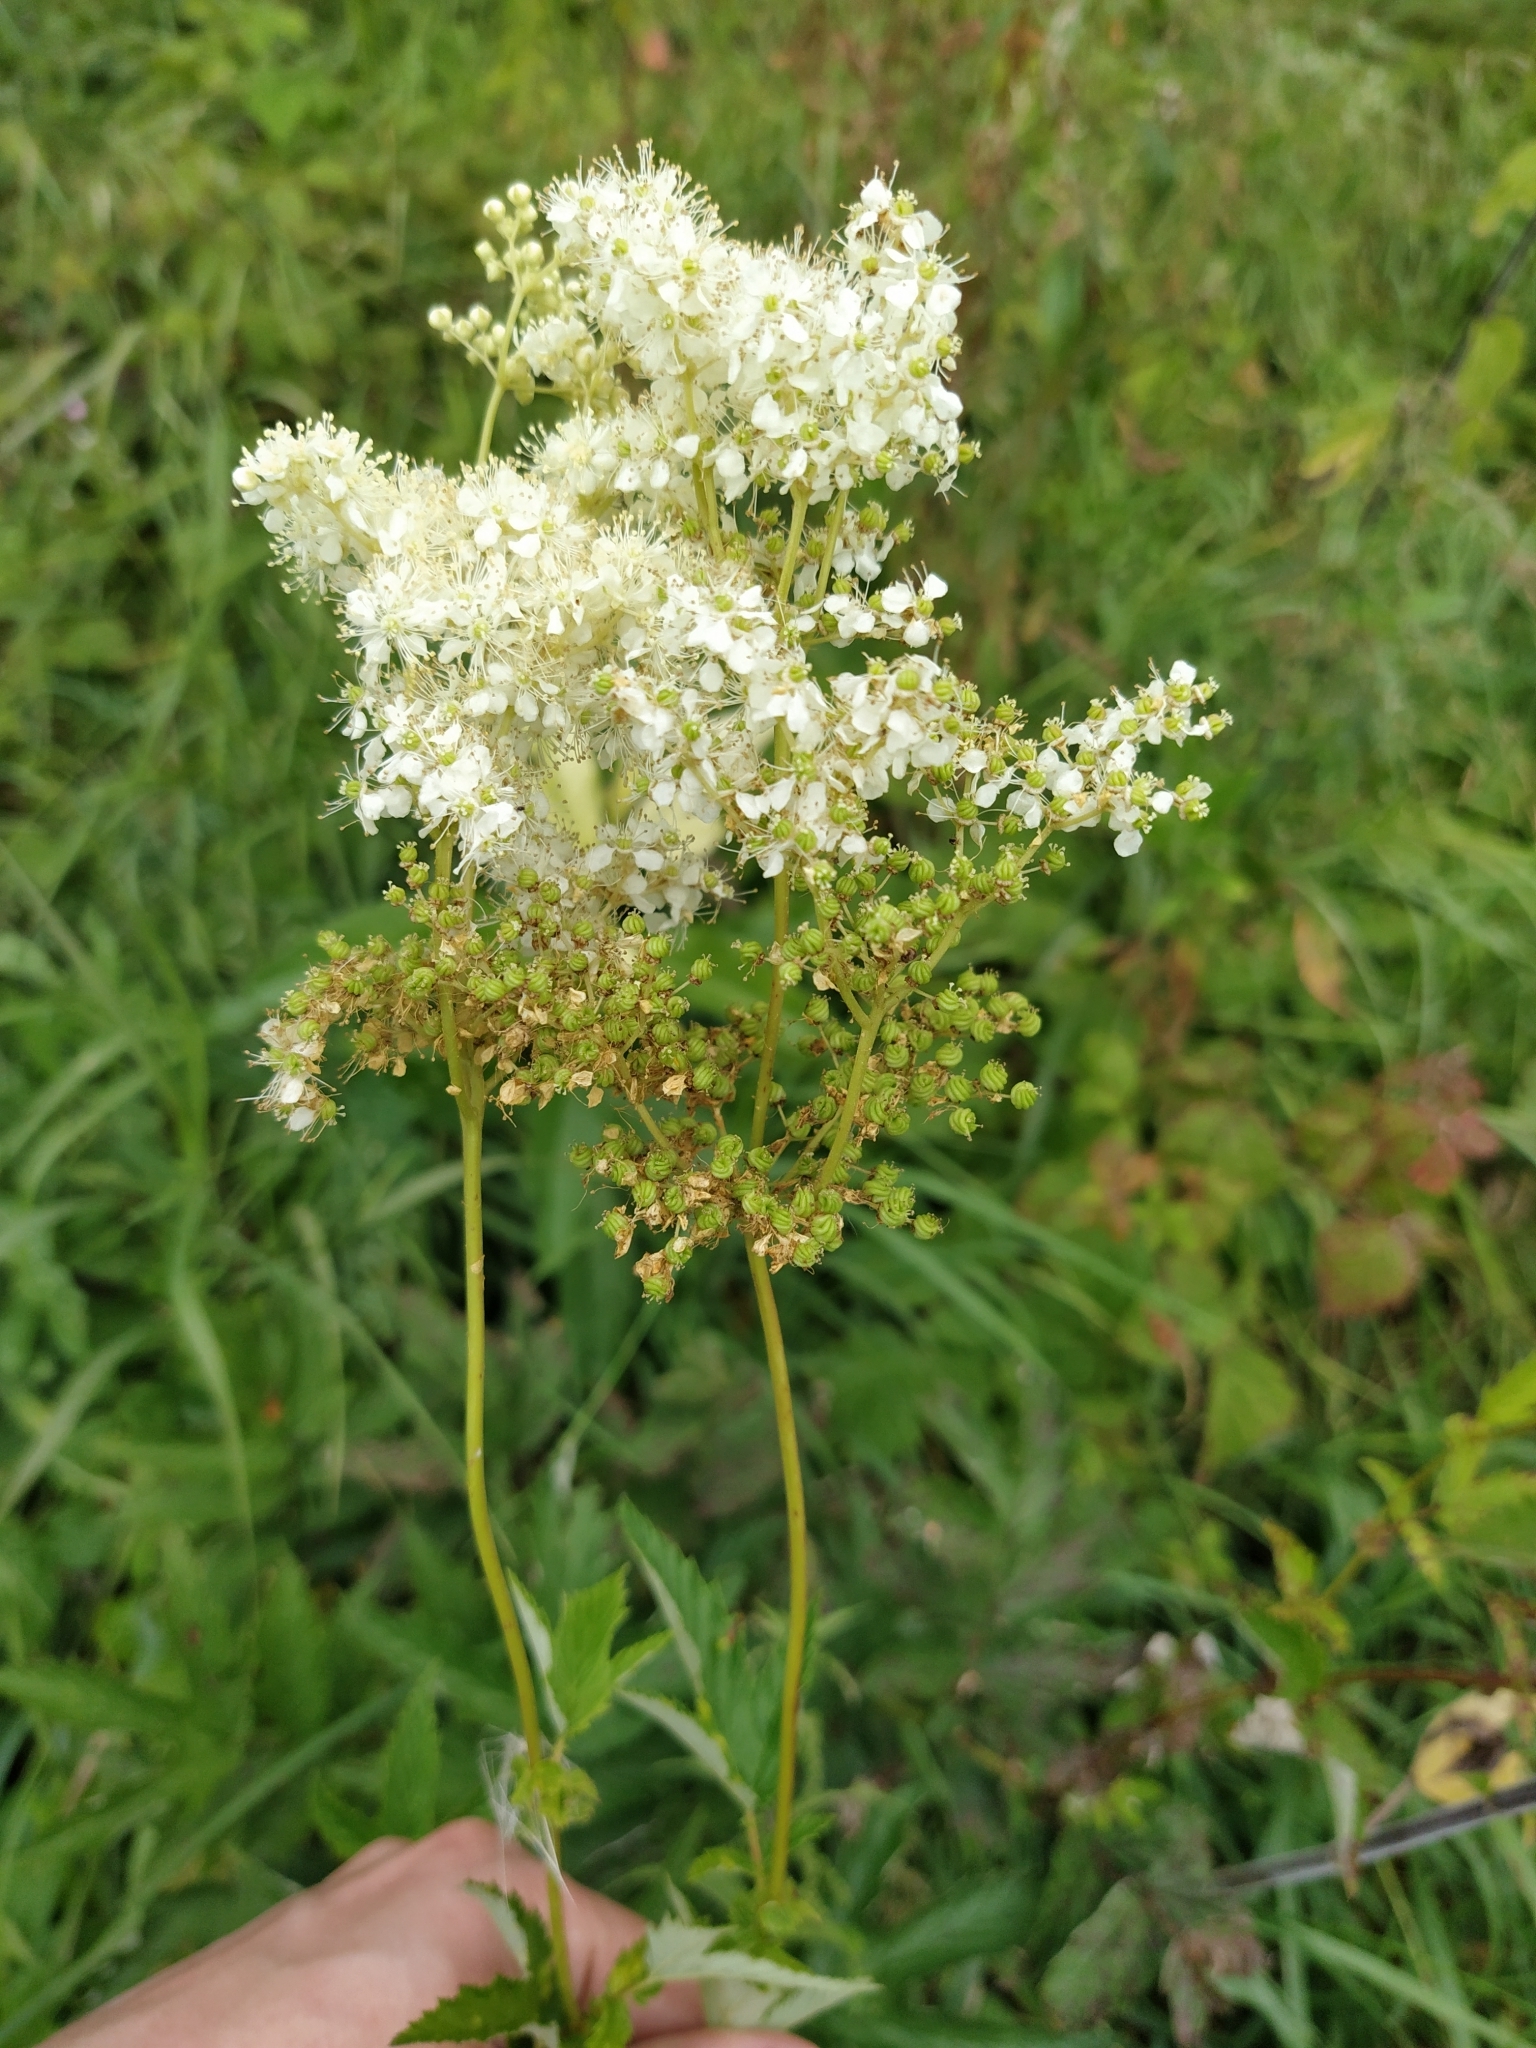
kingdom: Plantae
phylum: Tracheophyta
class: Magnoliopsida
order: Rosales
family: Rosaceae
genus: Filipendula
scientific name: Filipendula ulmaria
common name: Meadowsweet
